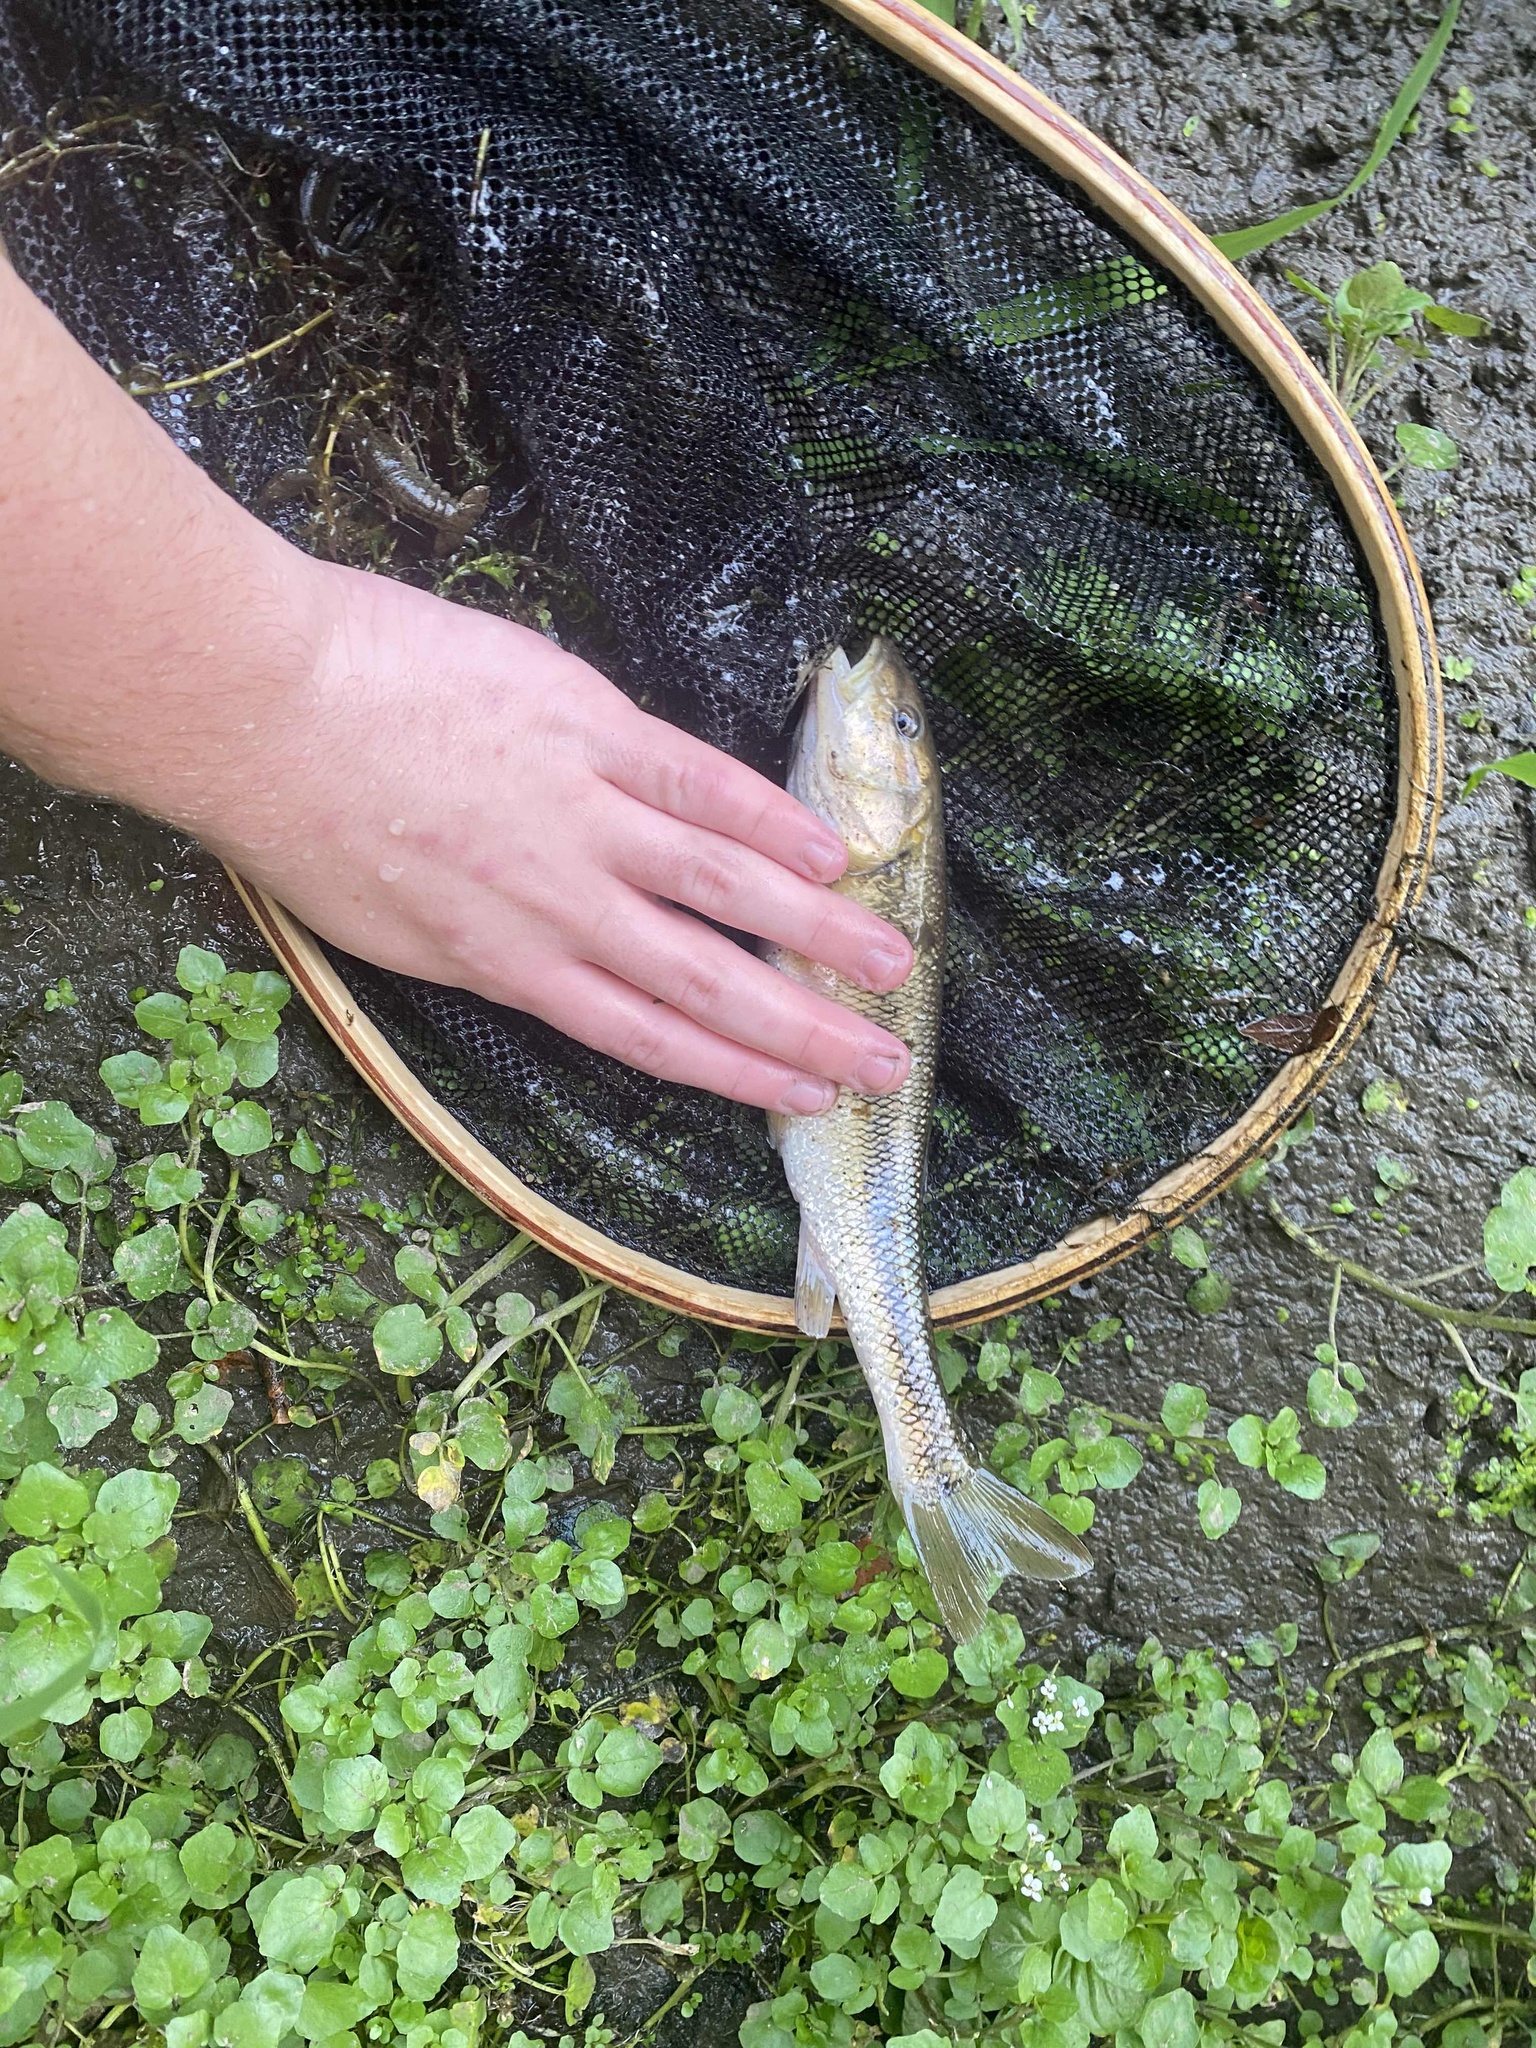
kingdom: Animalia
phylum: Chordata
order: Cypriniformes
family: Cyprinidae
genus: Semotilus
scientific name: Semotilus atromaculatus
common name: Creek chub
